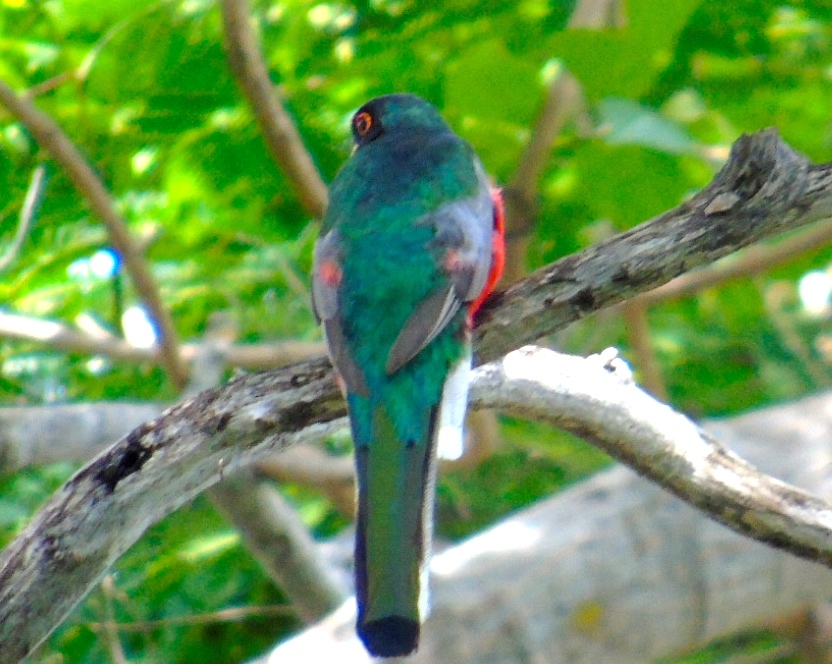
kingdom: Animalia
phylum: Chordata
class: Aves
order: Trogoniformes
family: Trogonidae
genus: Trogon
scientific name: Trogon elegans
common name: Elegant trogon
